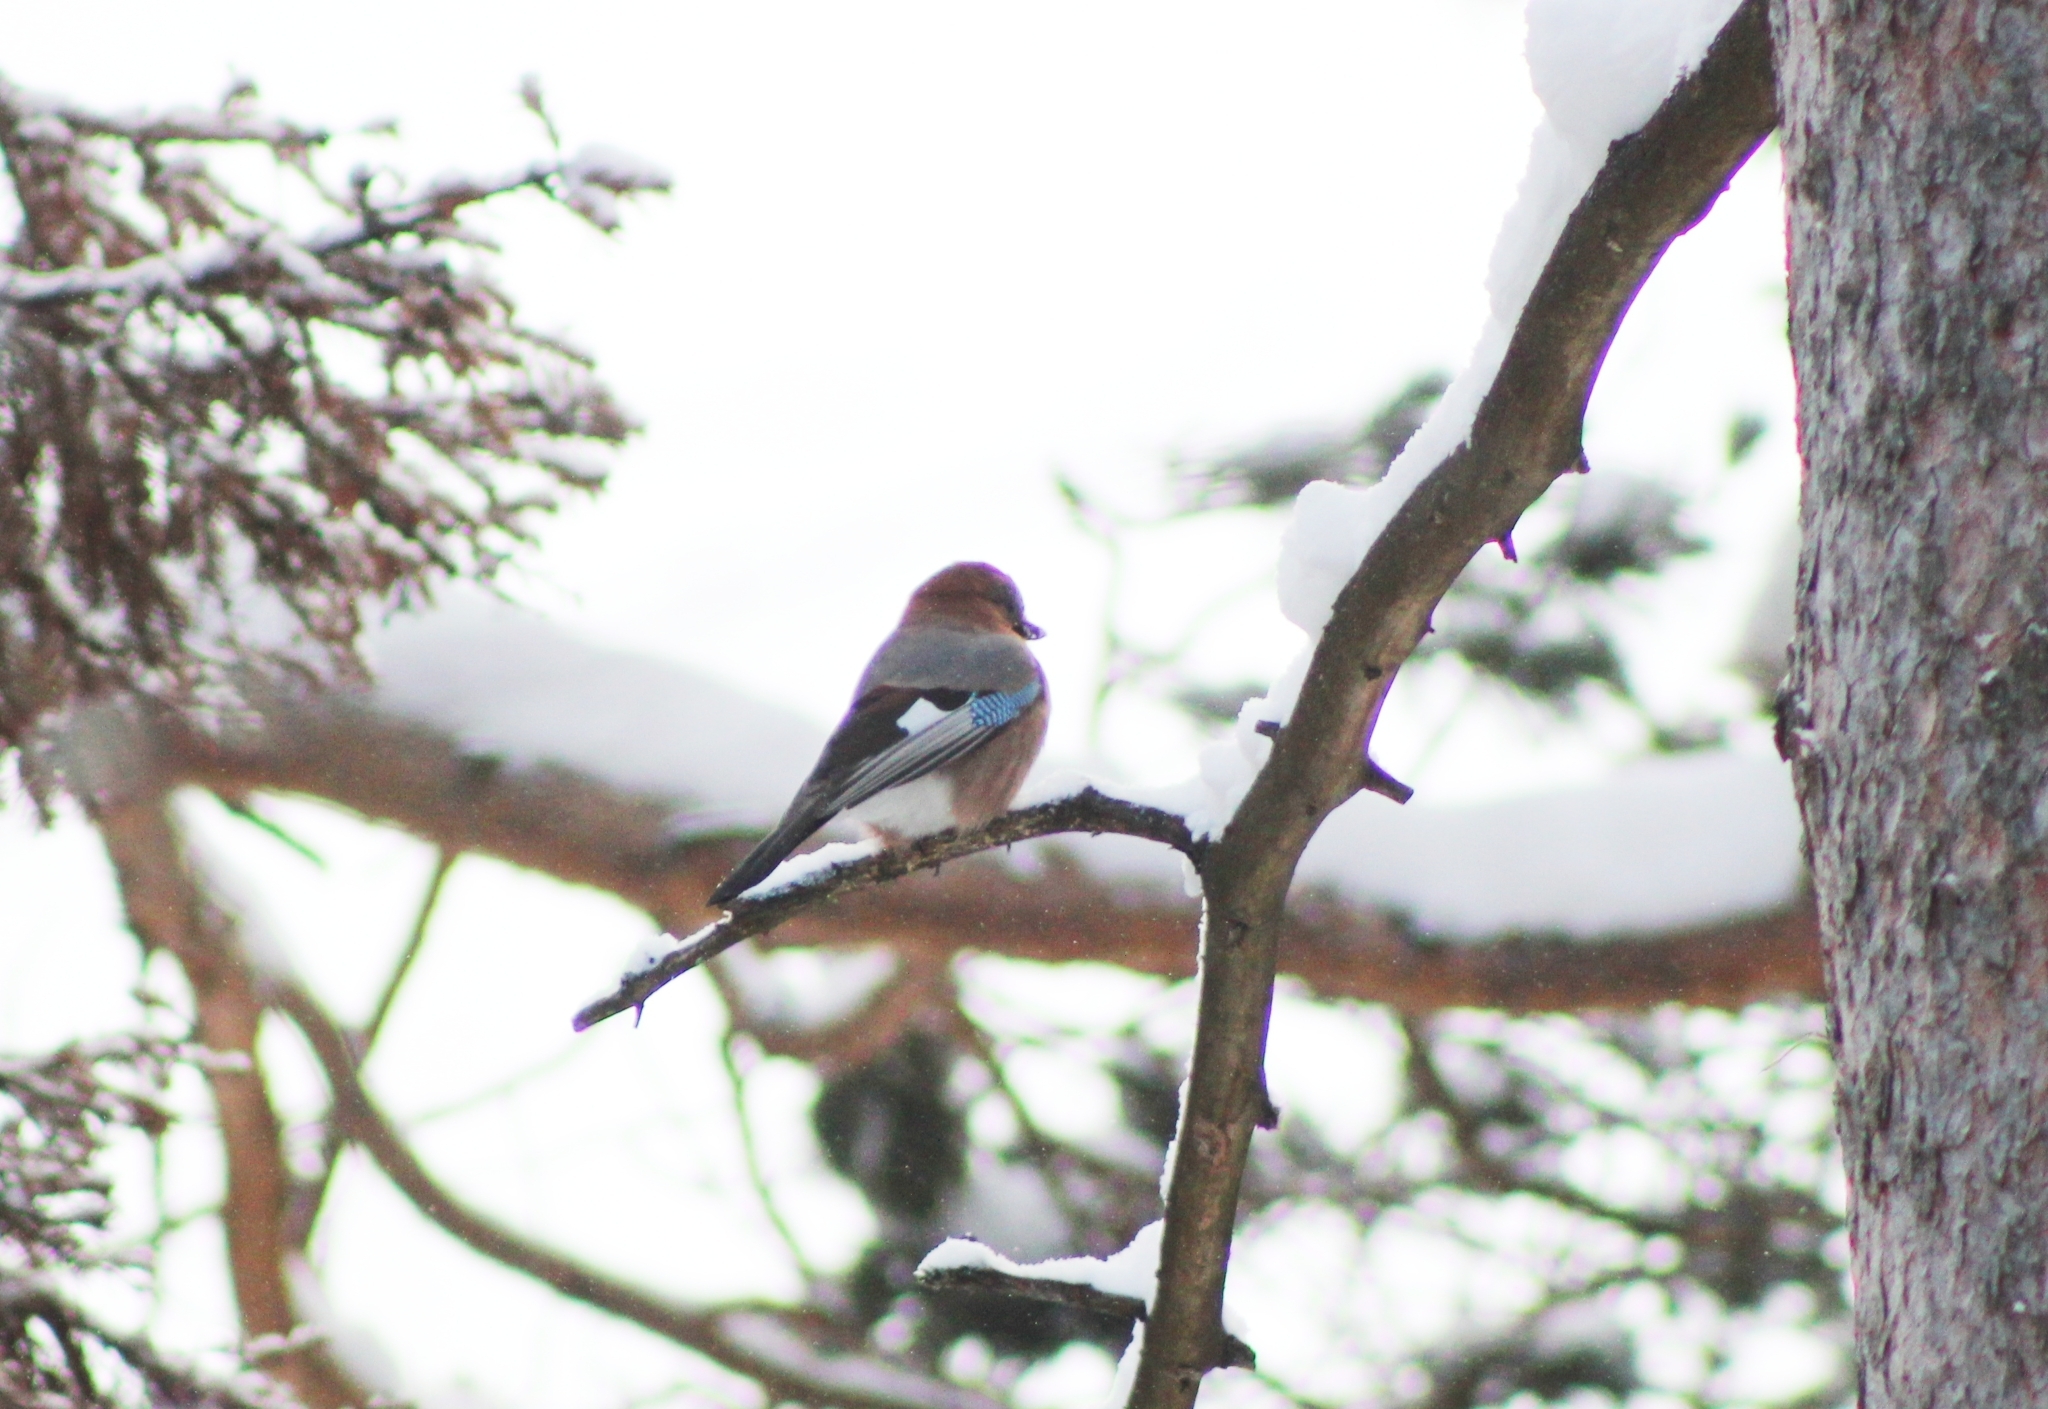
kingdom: Animalia
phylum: Chordata
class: Aves
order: Passeriformes
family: Corvidae
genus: Garrulus
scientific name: Garrulus glandarius
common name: Eurasian jay
